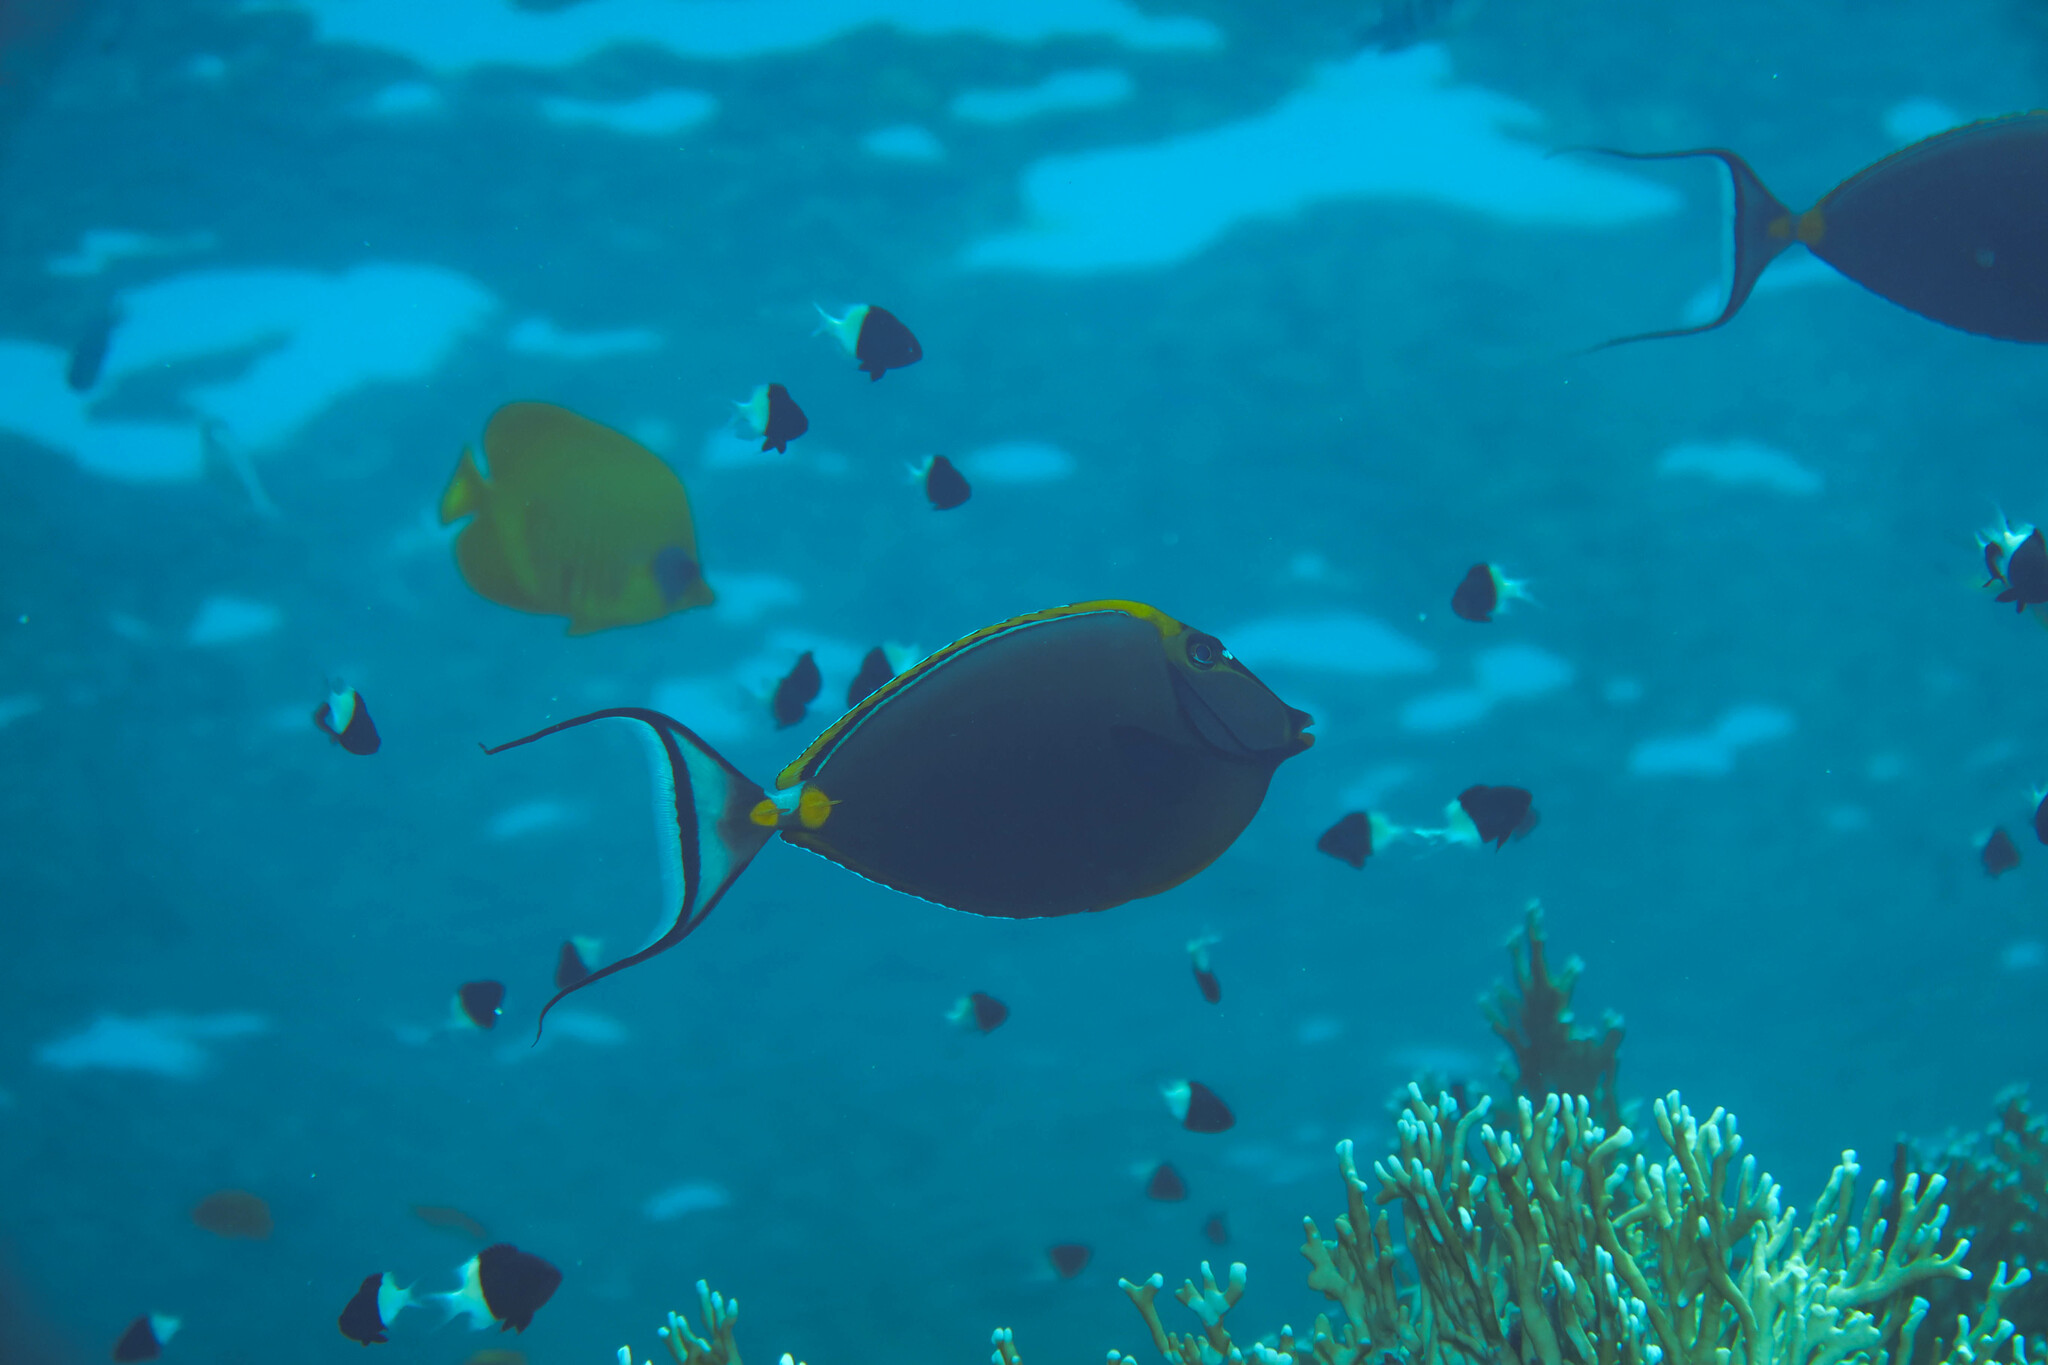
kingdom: Animalia
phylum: Chordata
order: Perciformes
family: Acanthuridae
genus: Naso
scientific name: Naso elegans
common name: Orangespine unicornfish
